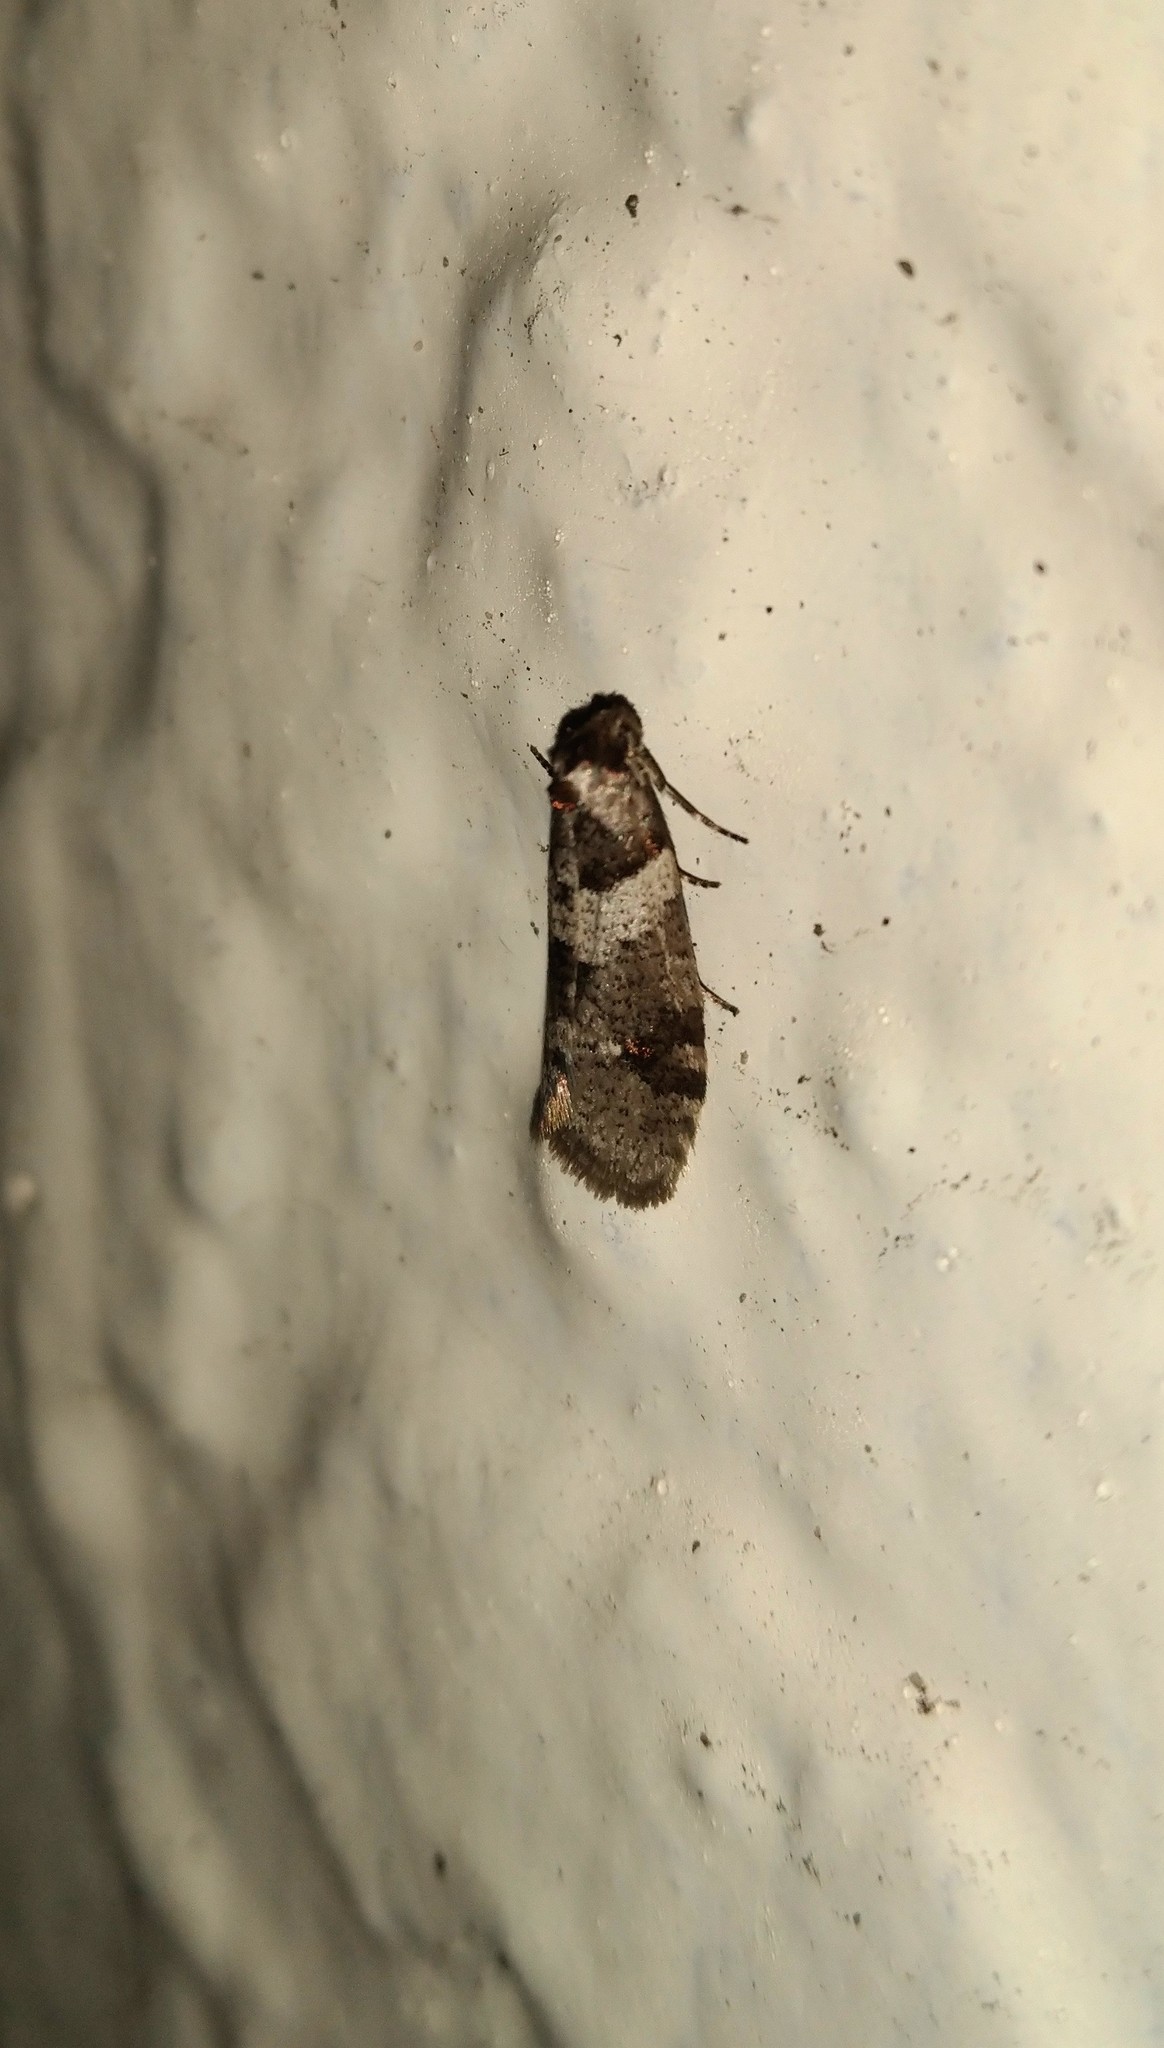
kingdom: Animalia
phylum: Arthropoda
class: Insecta
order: Lepidoptera
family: Psychidae
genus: Lepidoscia
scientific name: Lepidoscia heliochares
